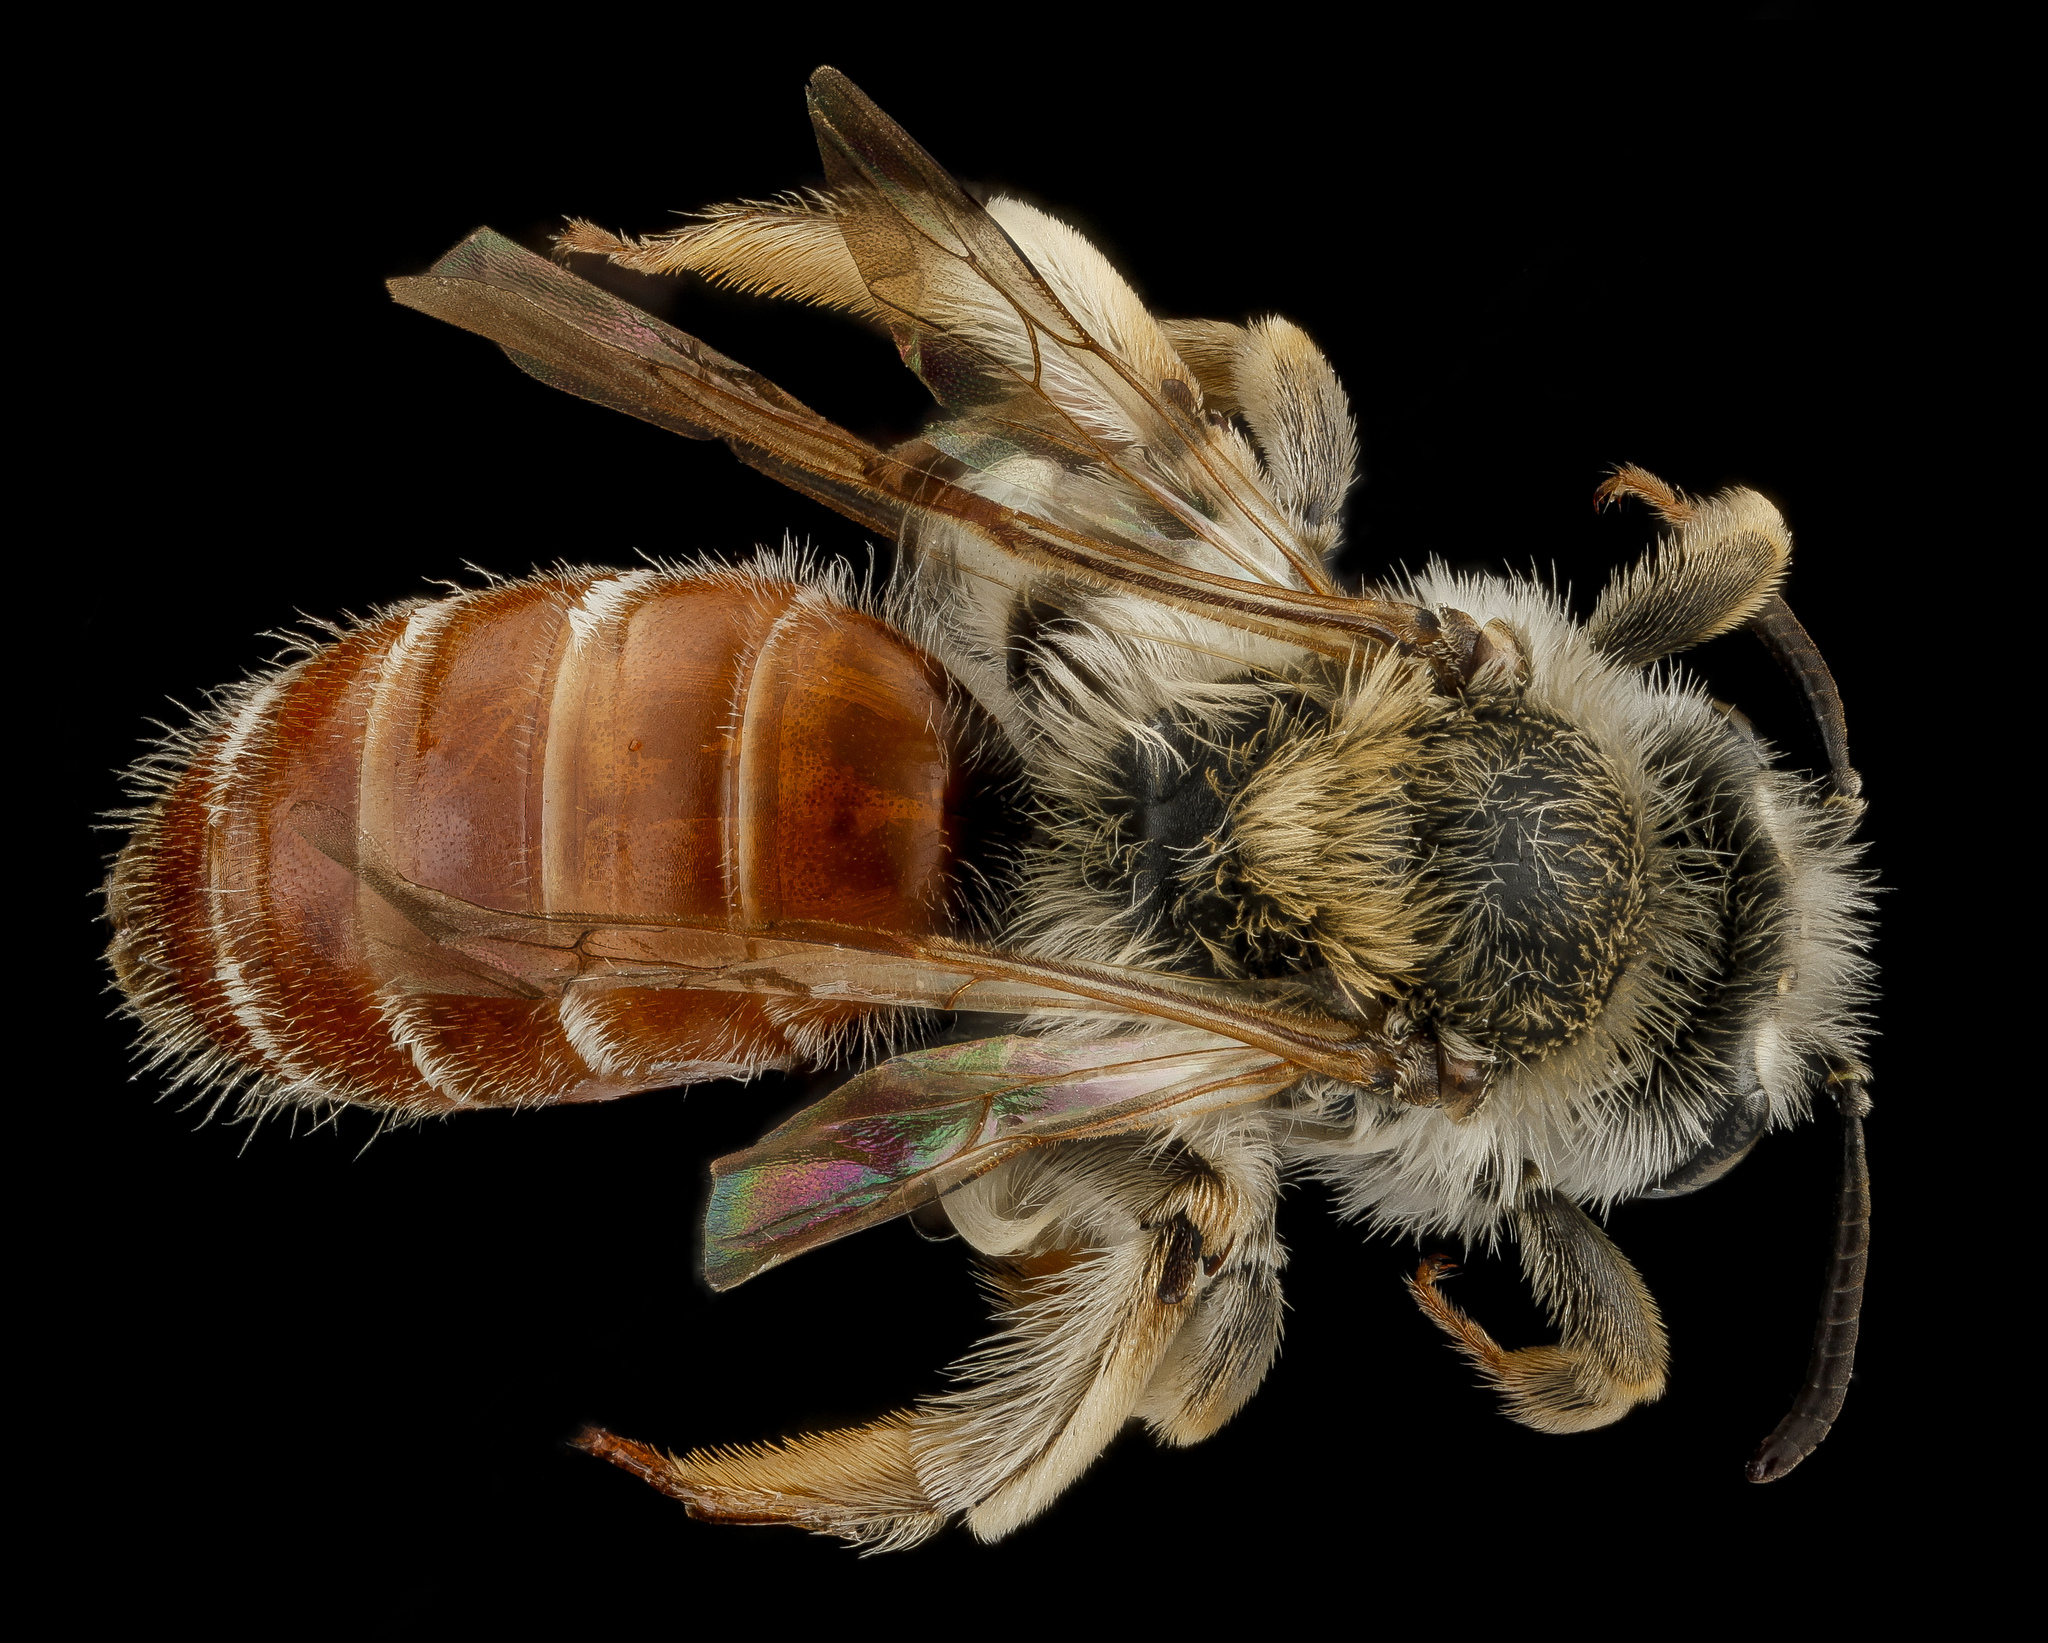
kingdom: Animalia
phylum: Arthropoda
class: Insecta
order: Hymenoptera
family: Andrenidae
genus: Andrena
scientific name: Andrena andrenoides
